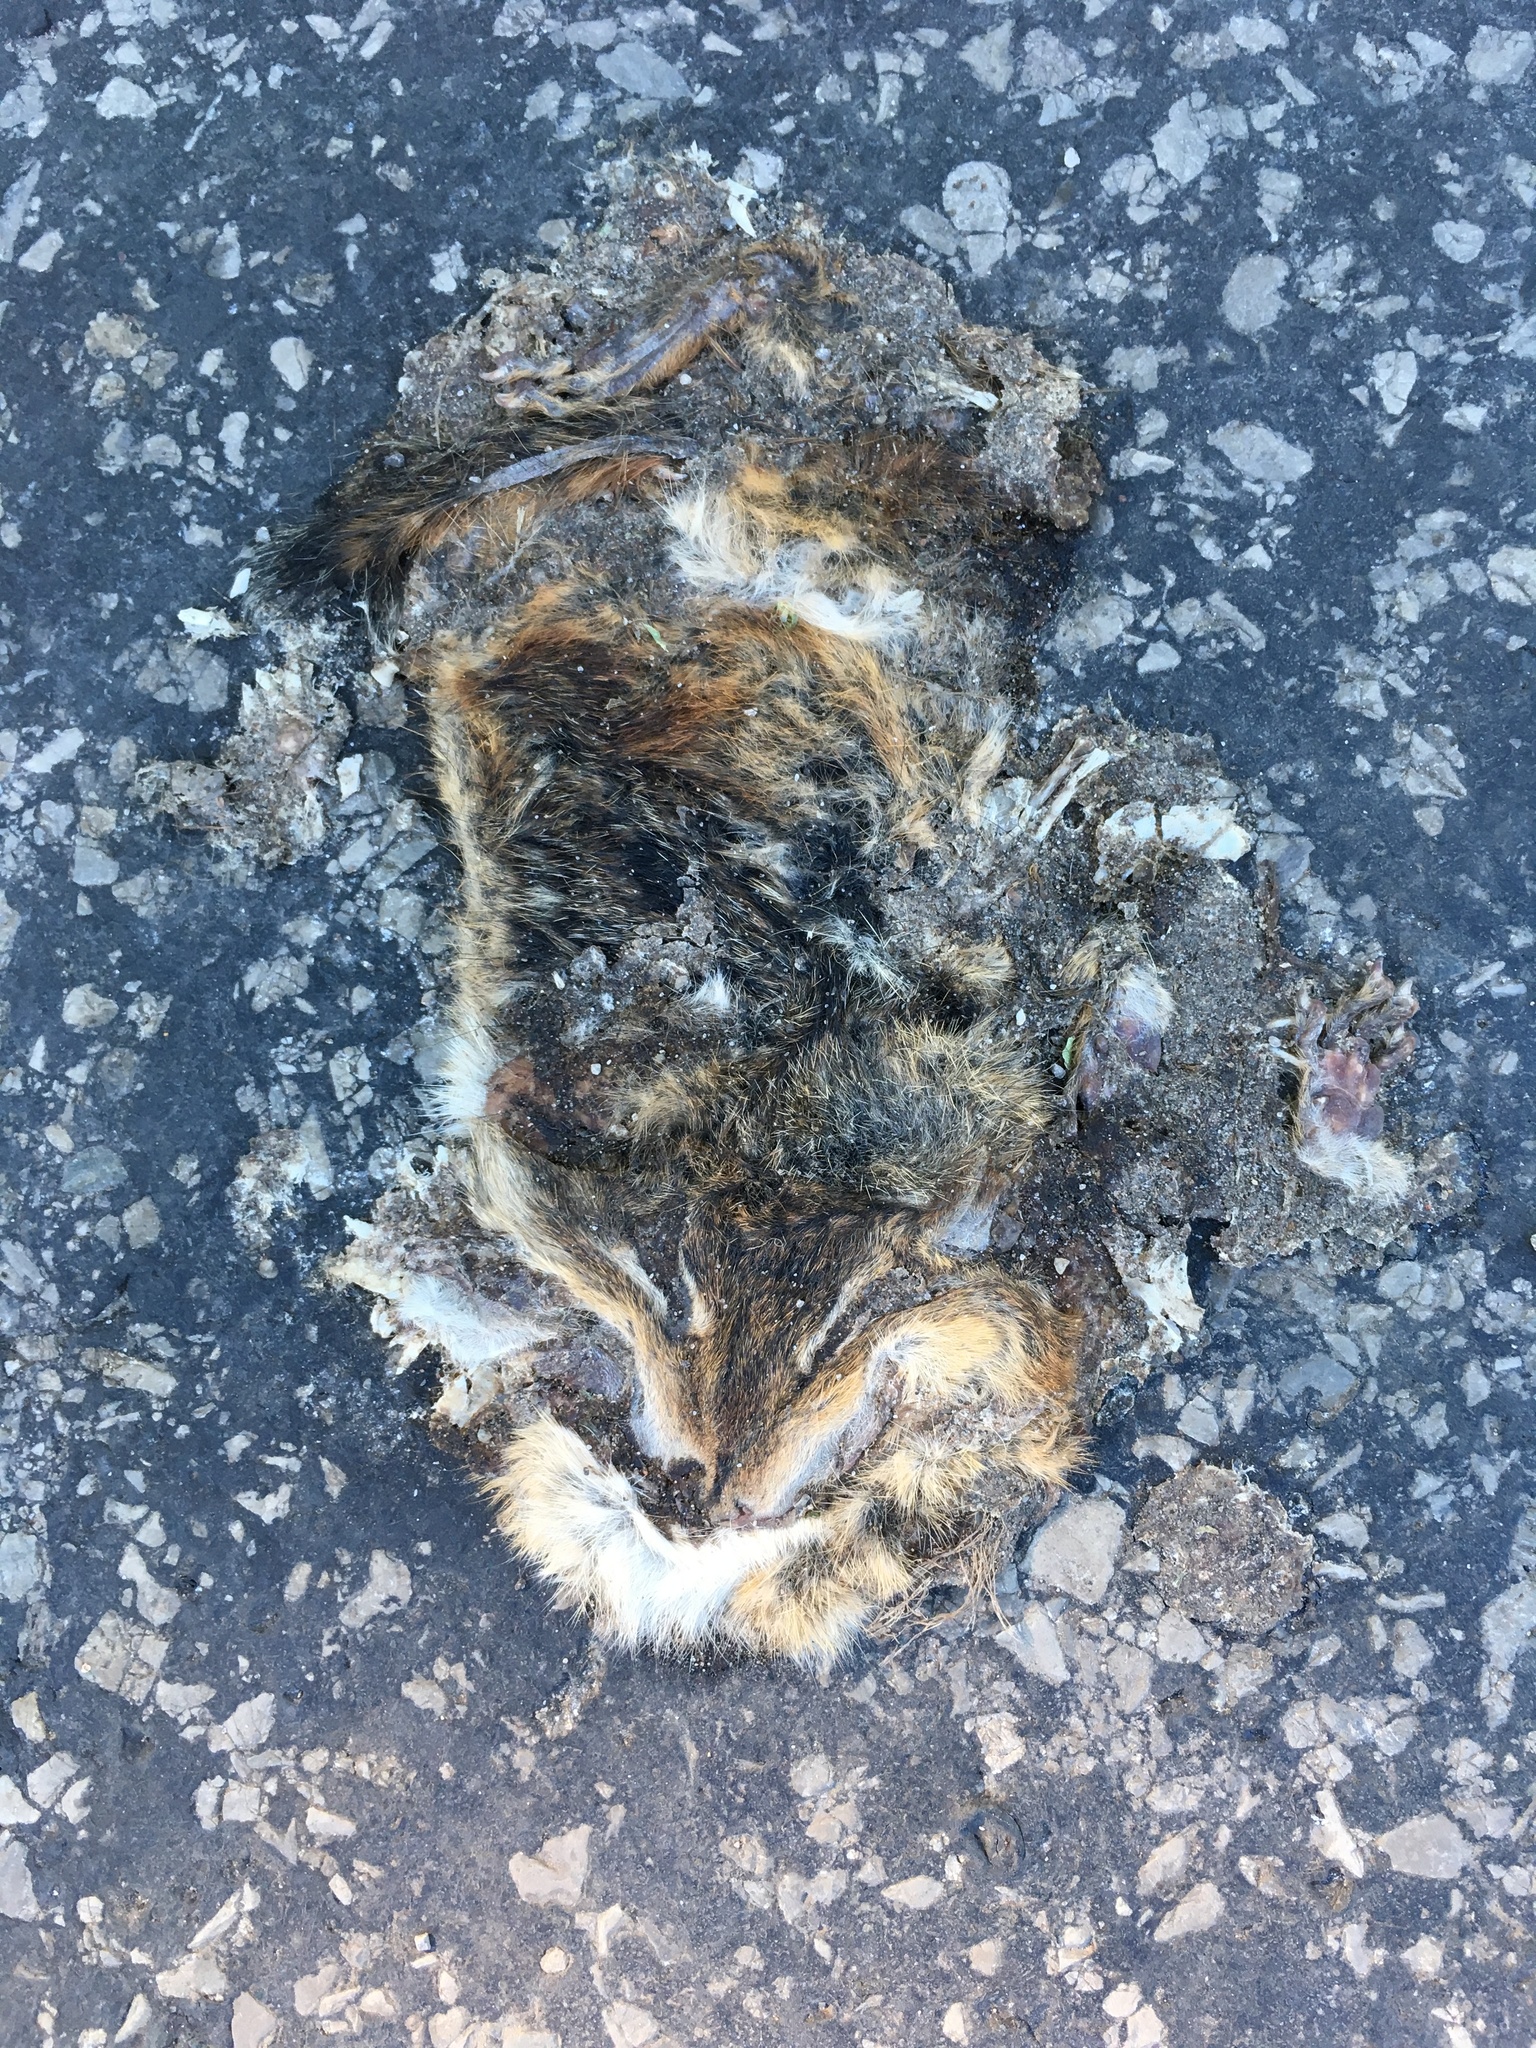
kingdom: Animalia
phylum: Chordata
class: Mammalia
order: Rodentia
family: Sciuridae
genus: Tamias
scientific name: Tamias striatus
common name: Eastern chipmunk
